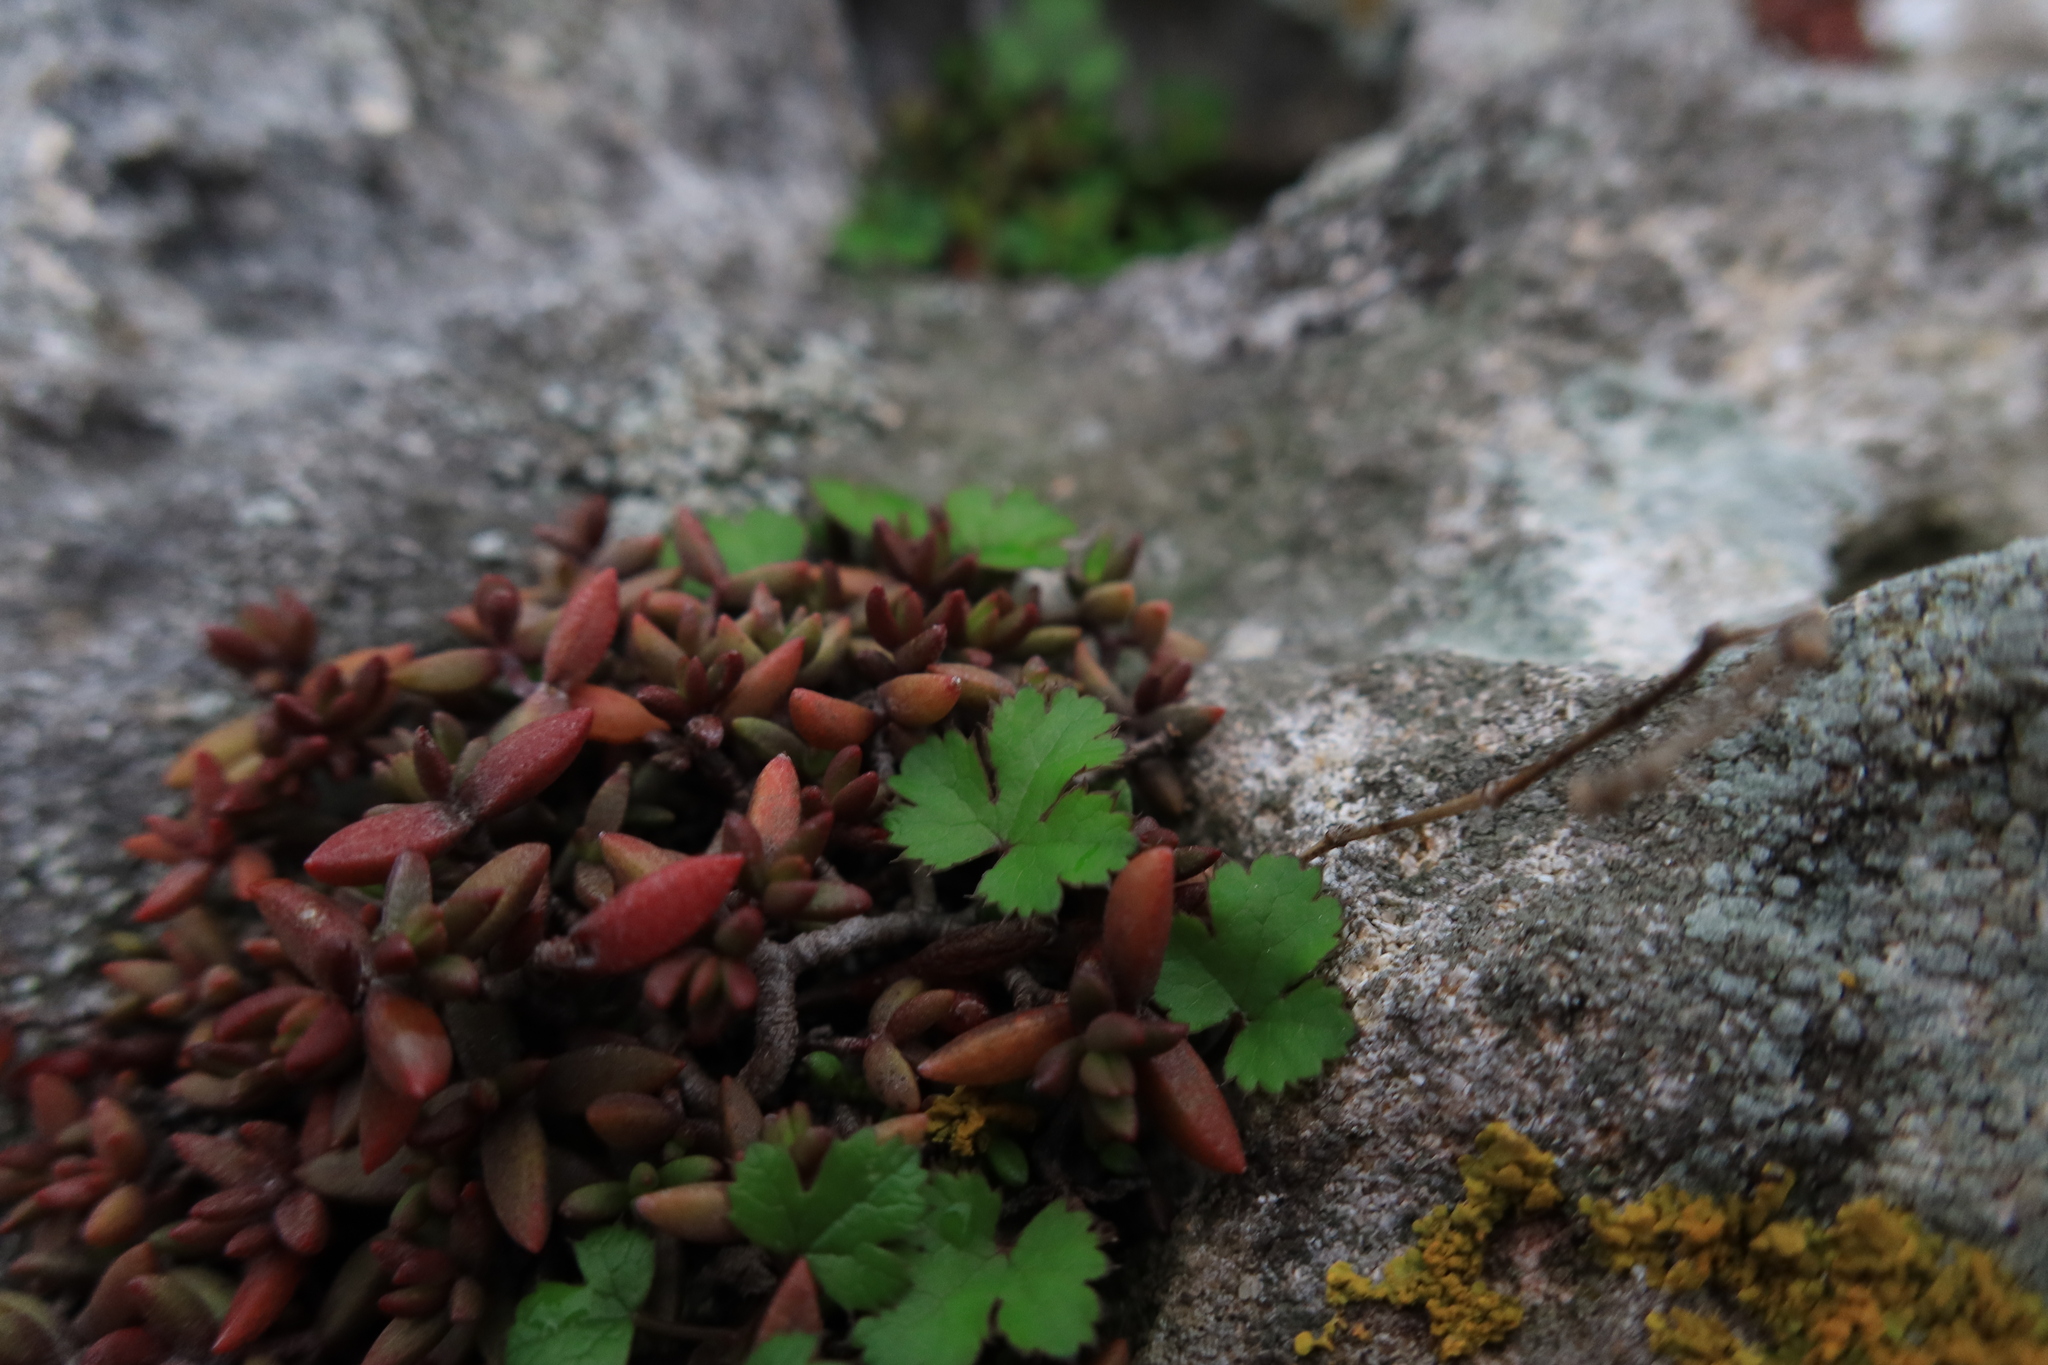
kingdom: Plantae
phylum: Tracheophyta
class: Magnoliopsida
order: Apiales
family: Apiaceae
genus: Chamarea
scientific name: Chamarea gracillima
